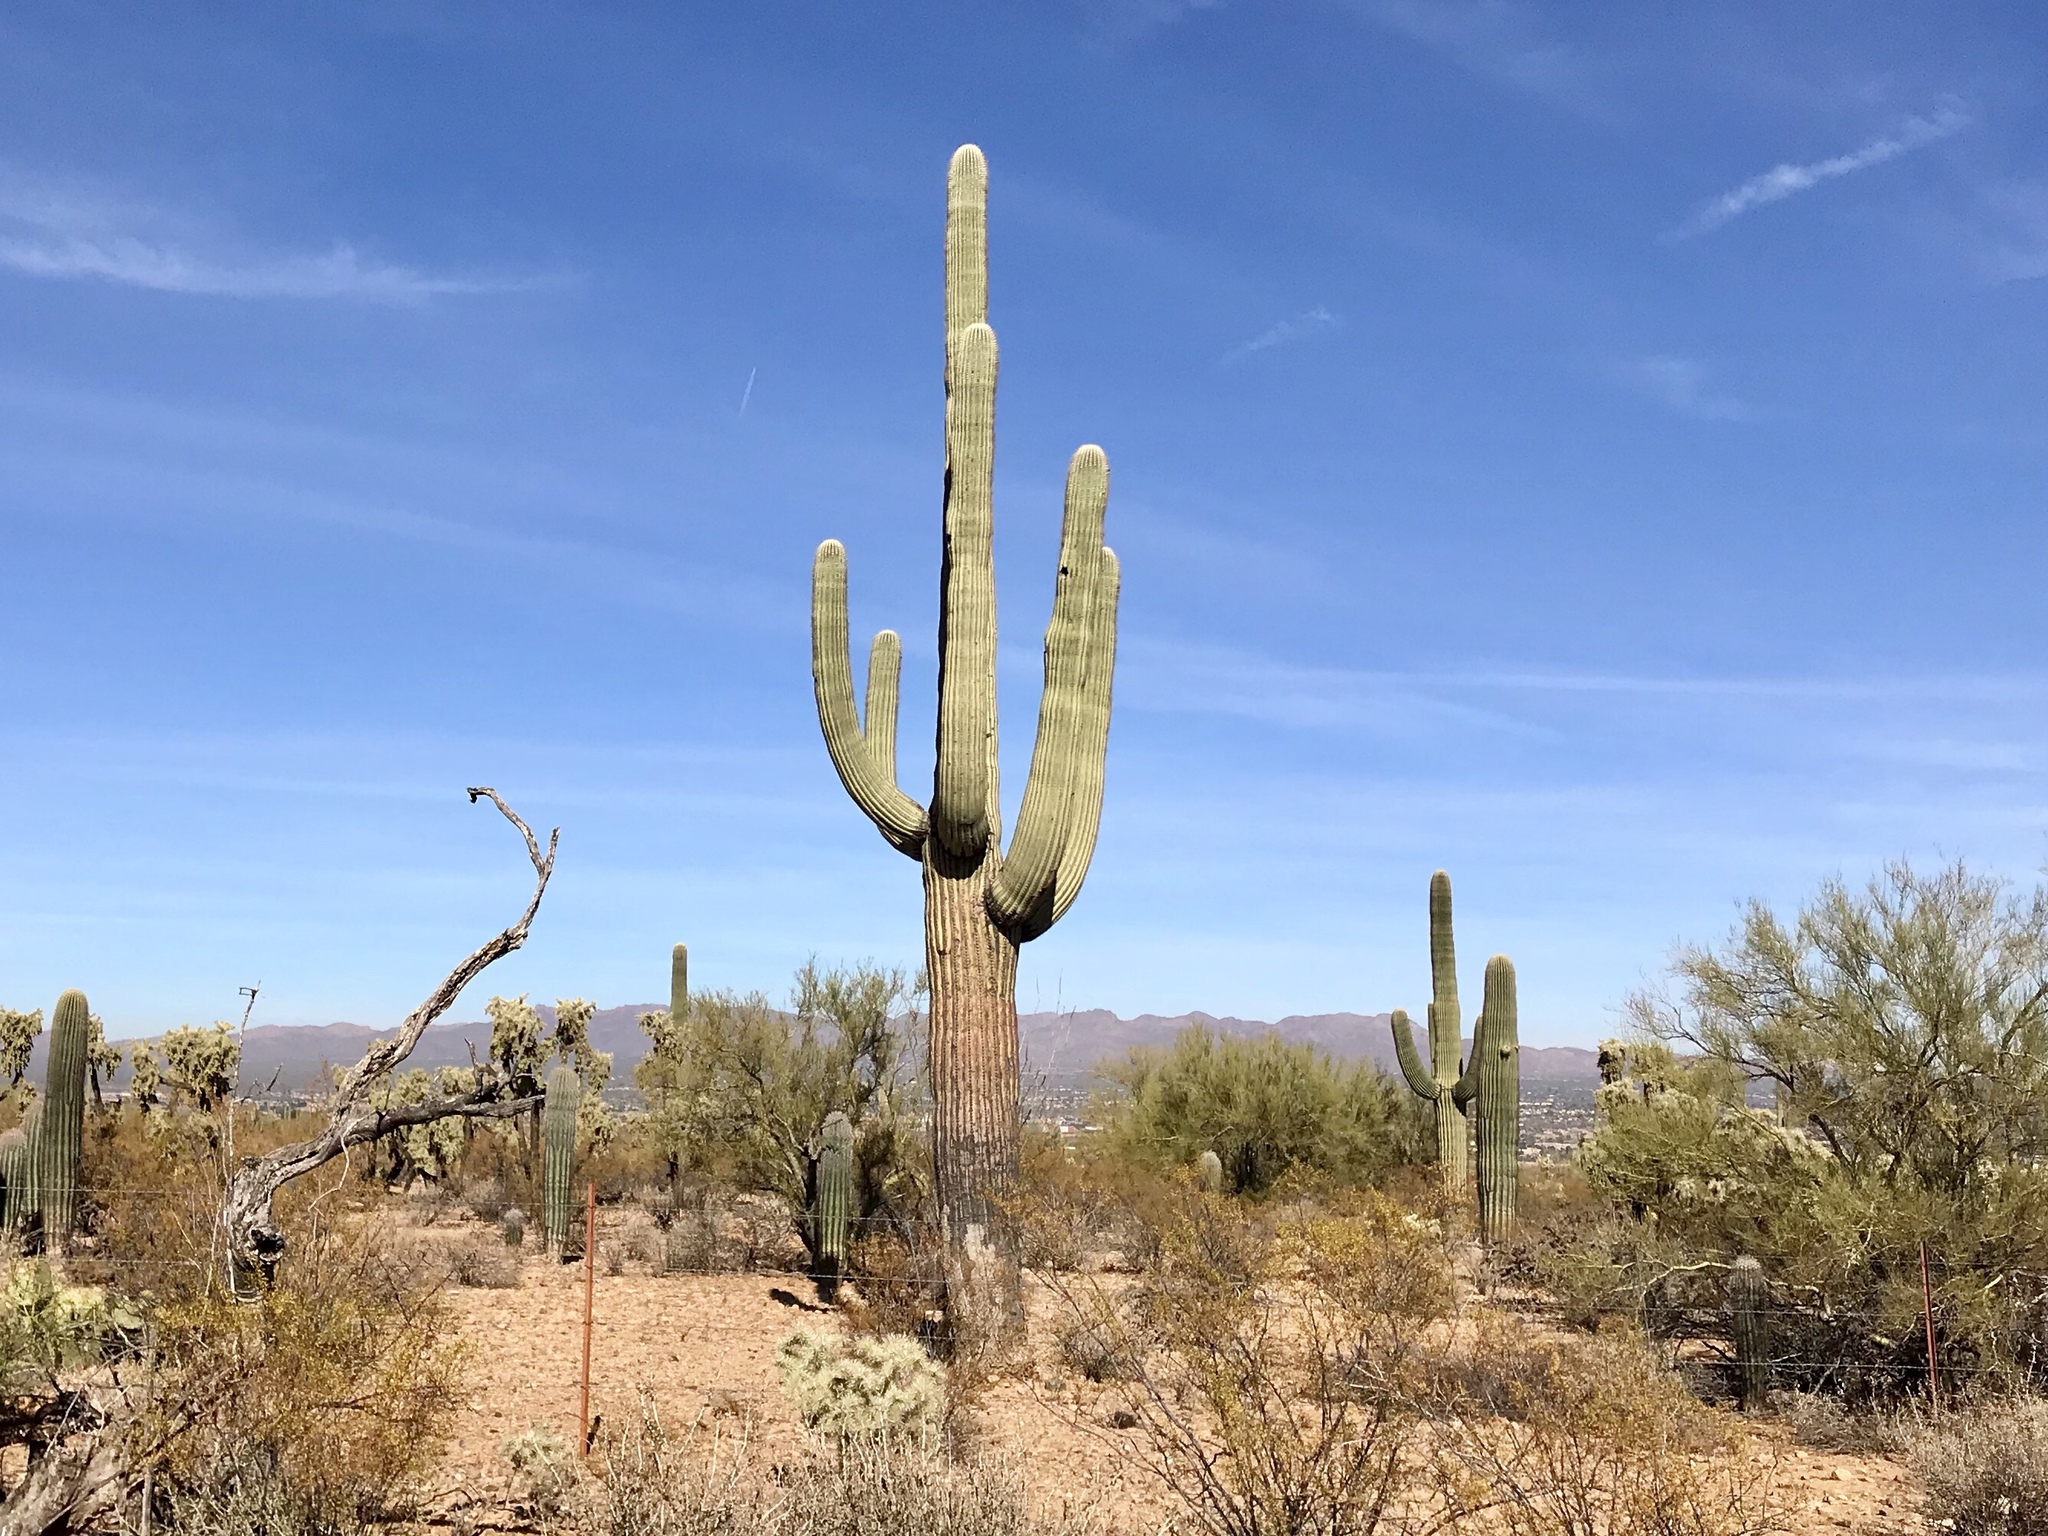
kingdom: Plantae
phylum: Tracheophyta
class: Magnoliopsida
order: Caryophyllales
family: Cactaceae
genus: Carnegiea
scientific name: Carnegiea gigantea
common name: Saguaro
